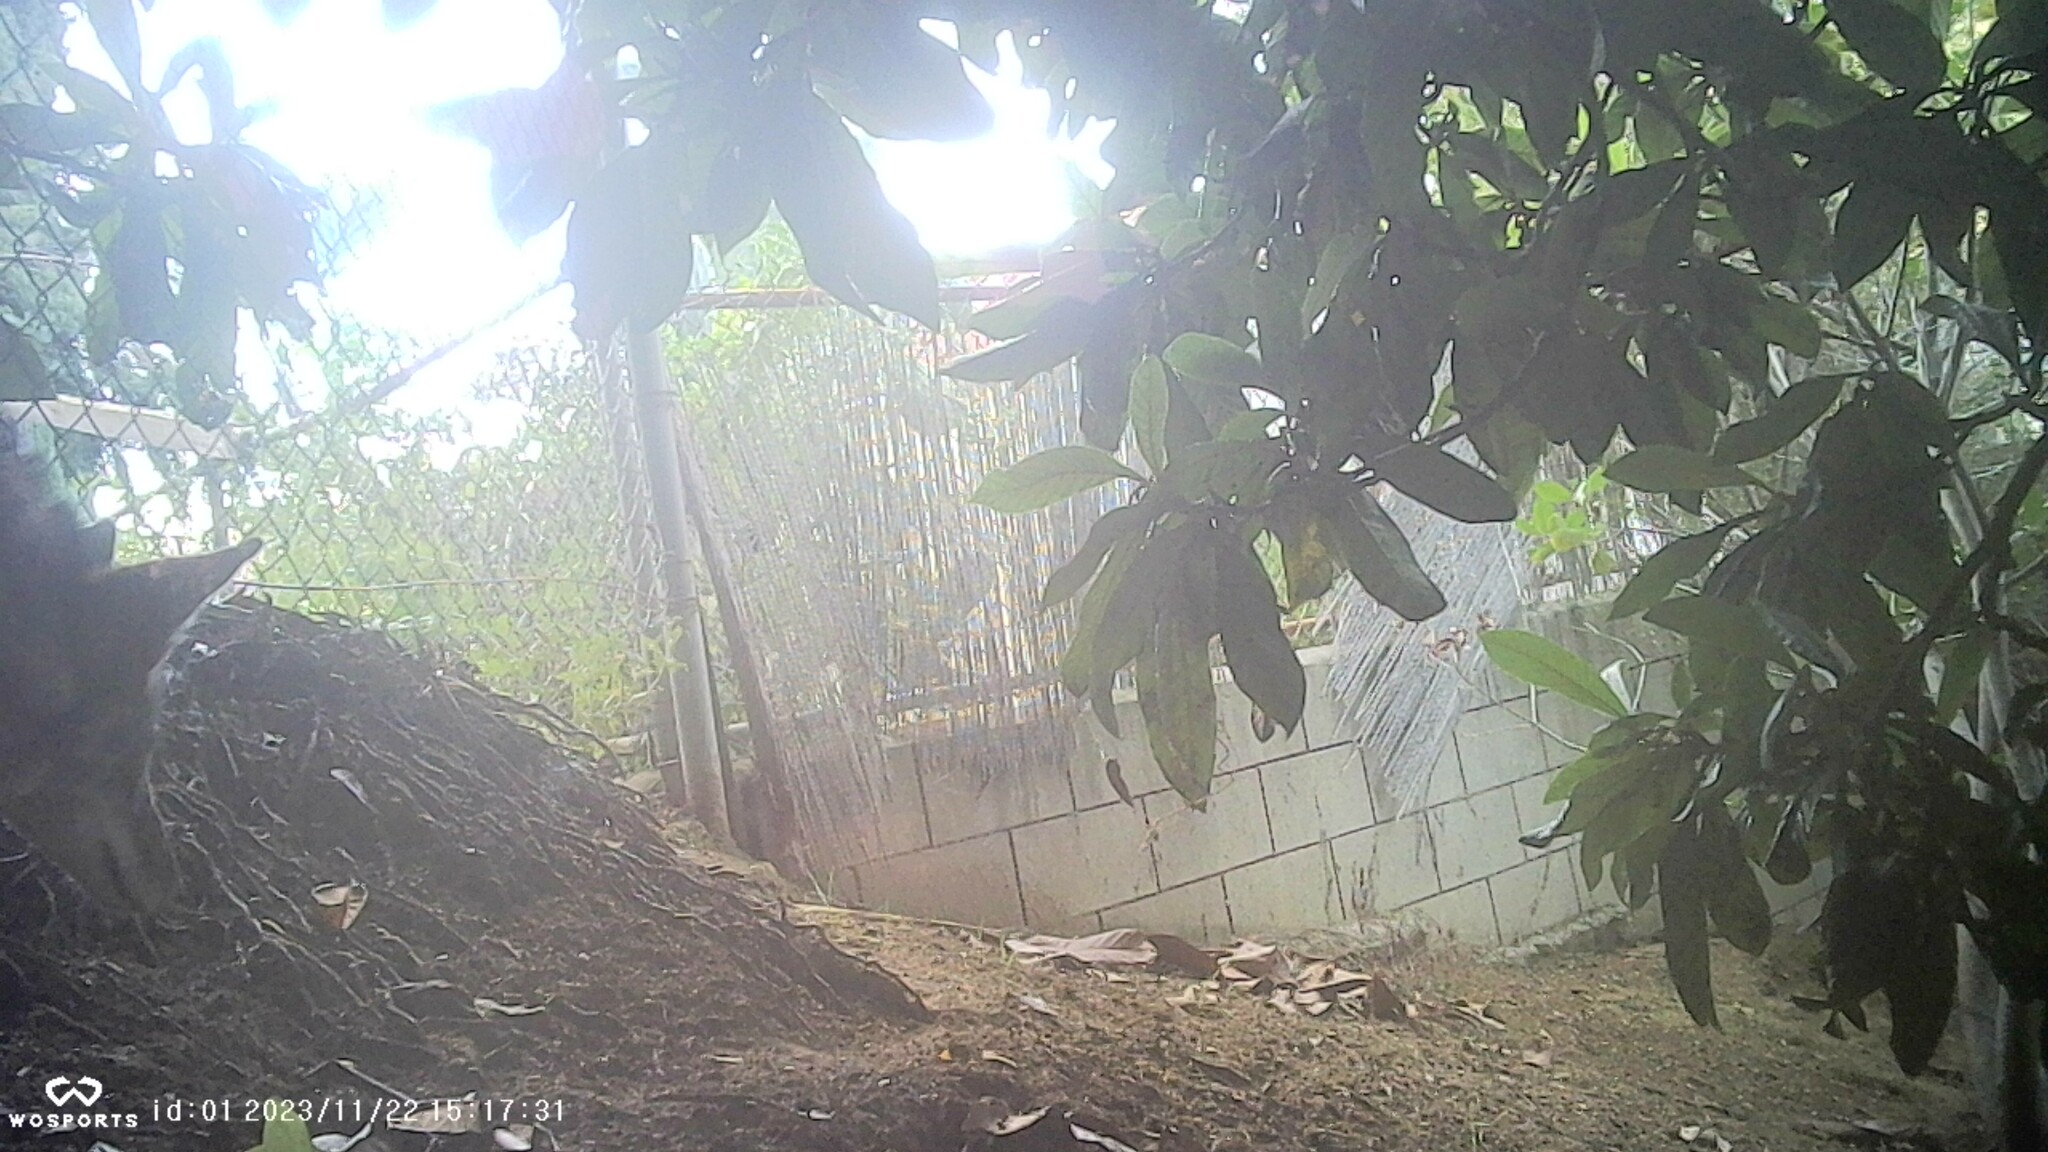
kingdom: Animalia
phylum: Chordata
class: Mammalia
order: Carnivora
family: Canidae
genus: Canis
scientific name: Canis latrans
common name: Coyote
